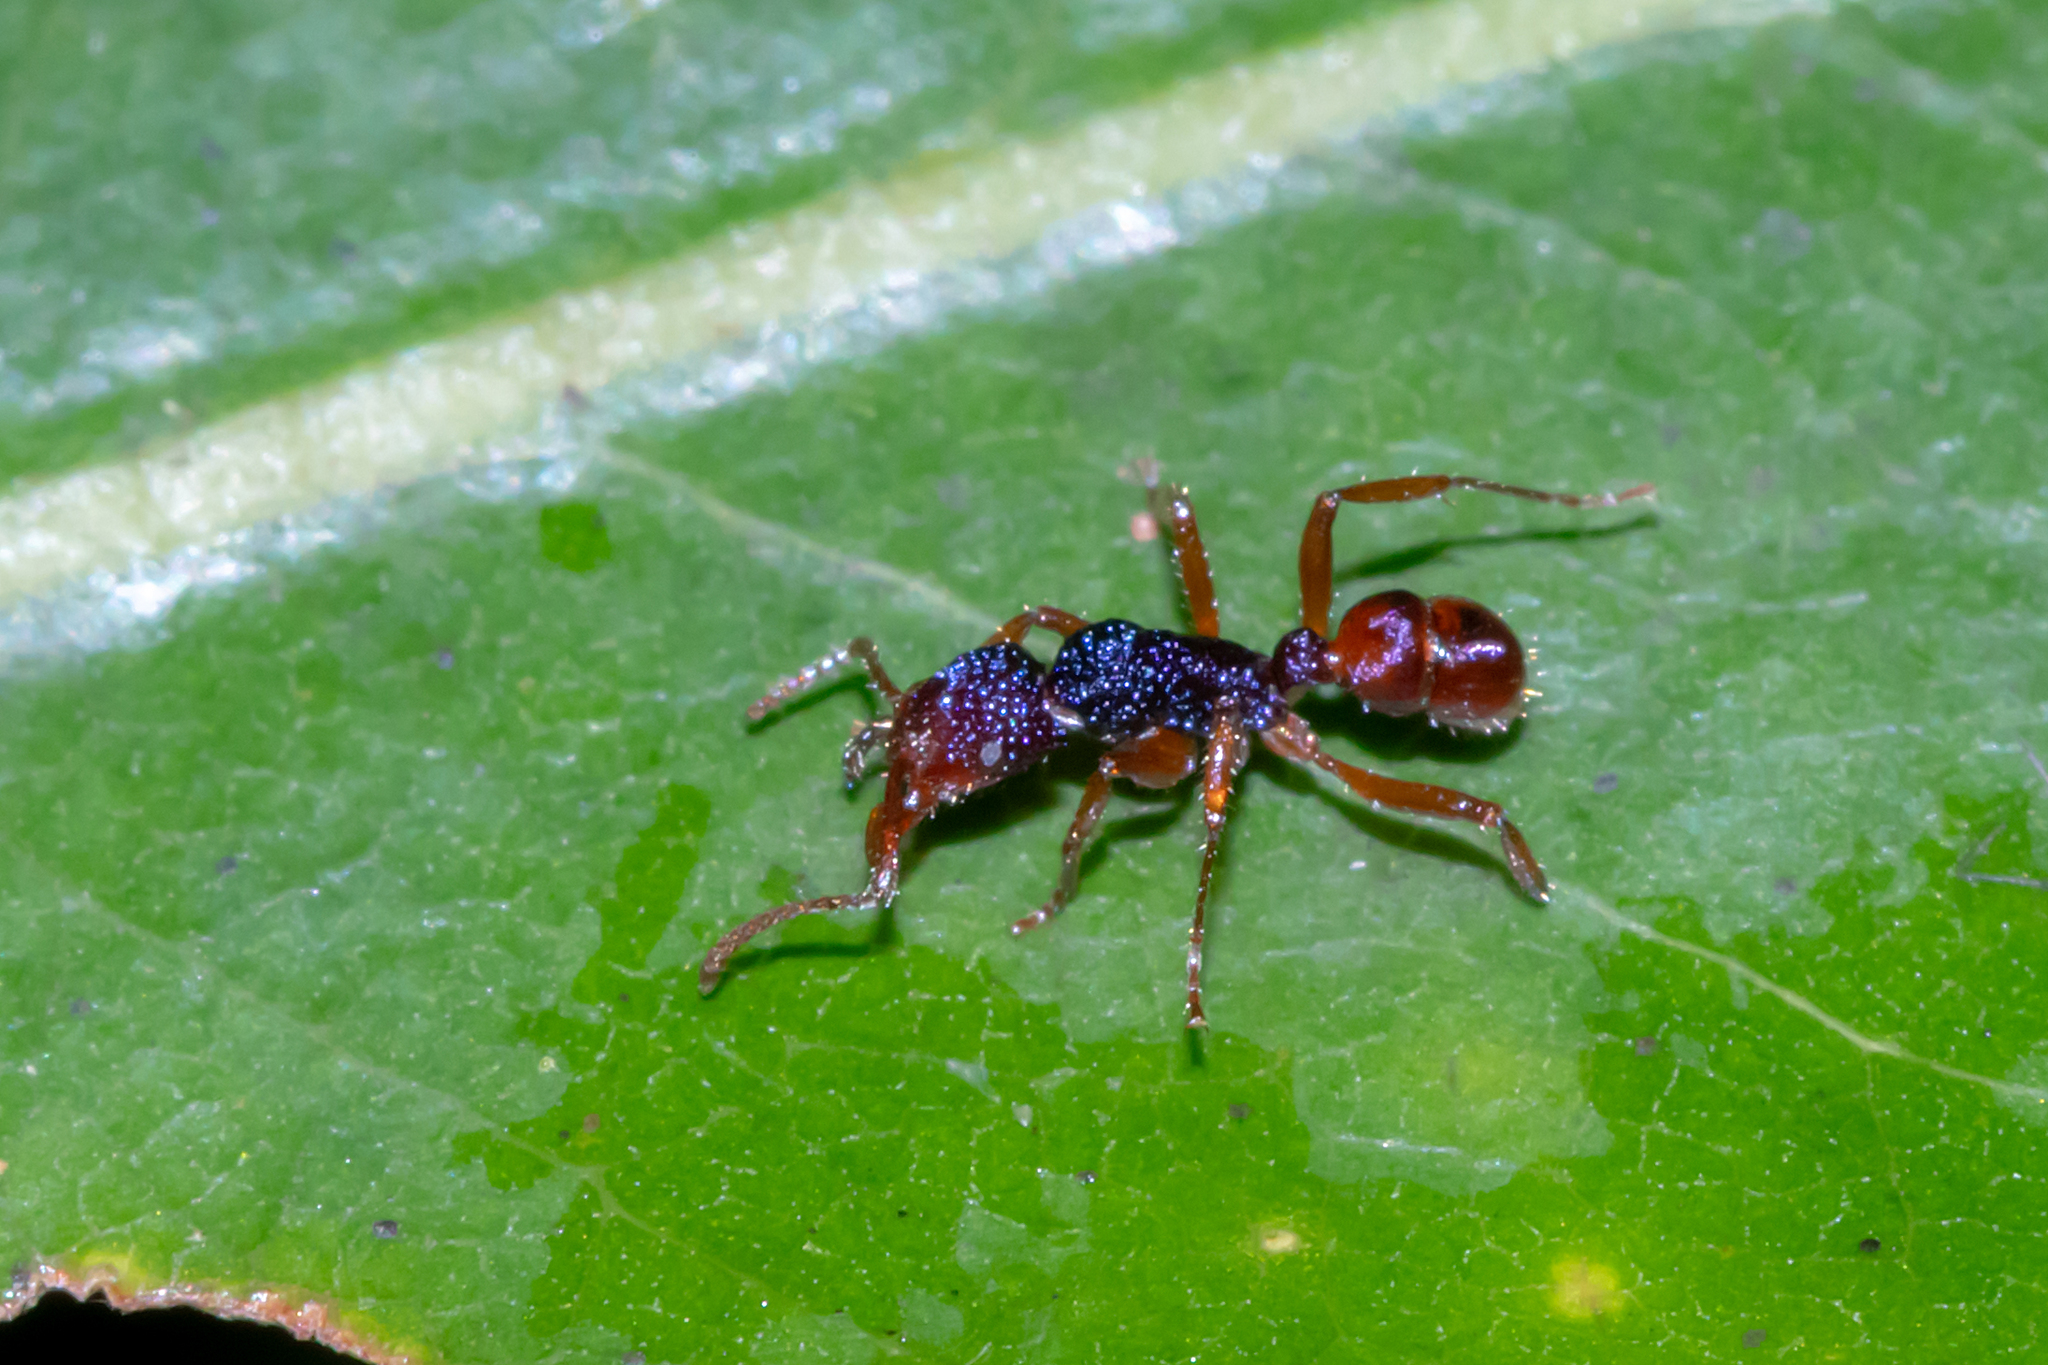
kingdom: Animalia
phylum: Arthropoda
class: Insecta
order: Hymenoptera
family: Formicidae
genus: Rhytidoponera
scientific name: Rhytidoponera croesus
